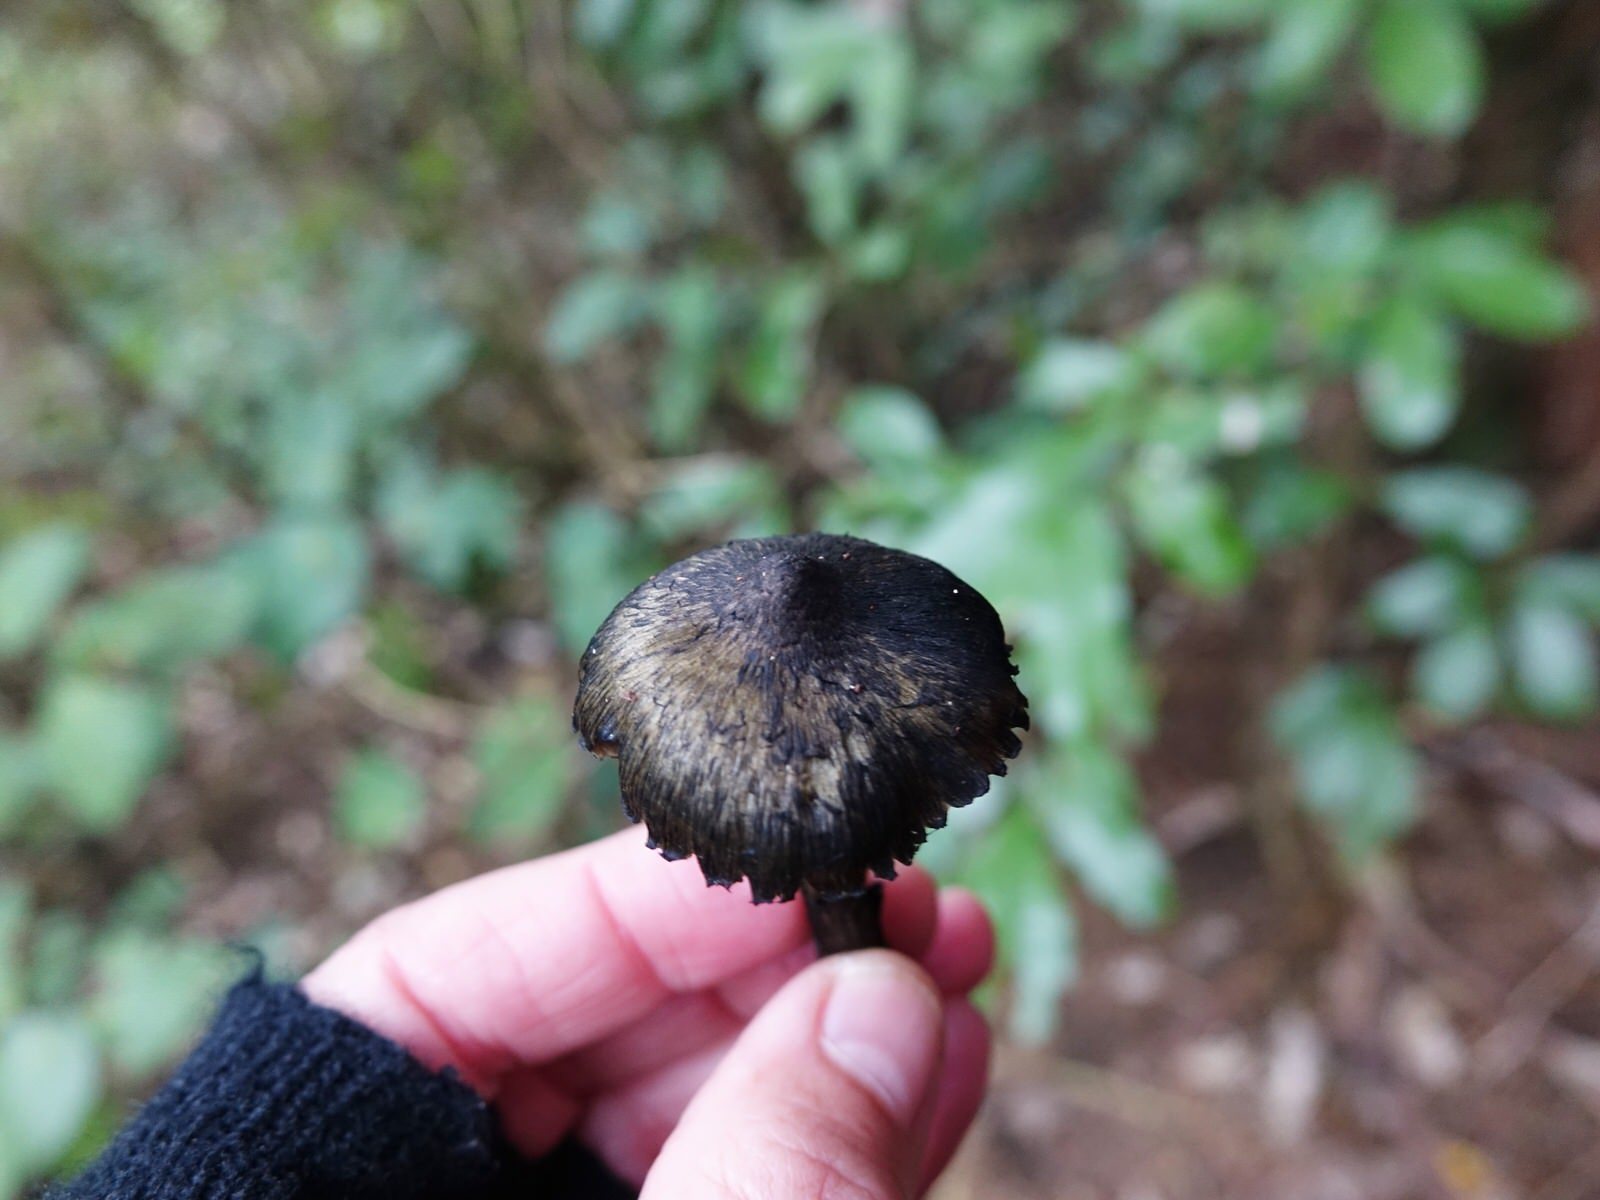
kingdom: Fungi
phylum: Basidiomycota
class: Agaricomycetes
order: Agaricales
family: Hygrophoraceae
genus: Hygrocybe
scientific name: Hygrocybe astatogala
